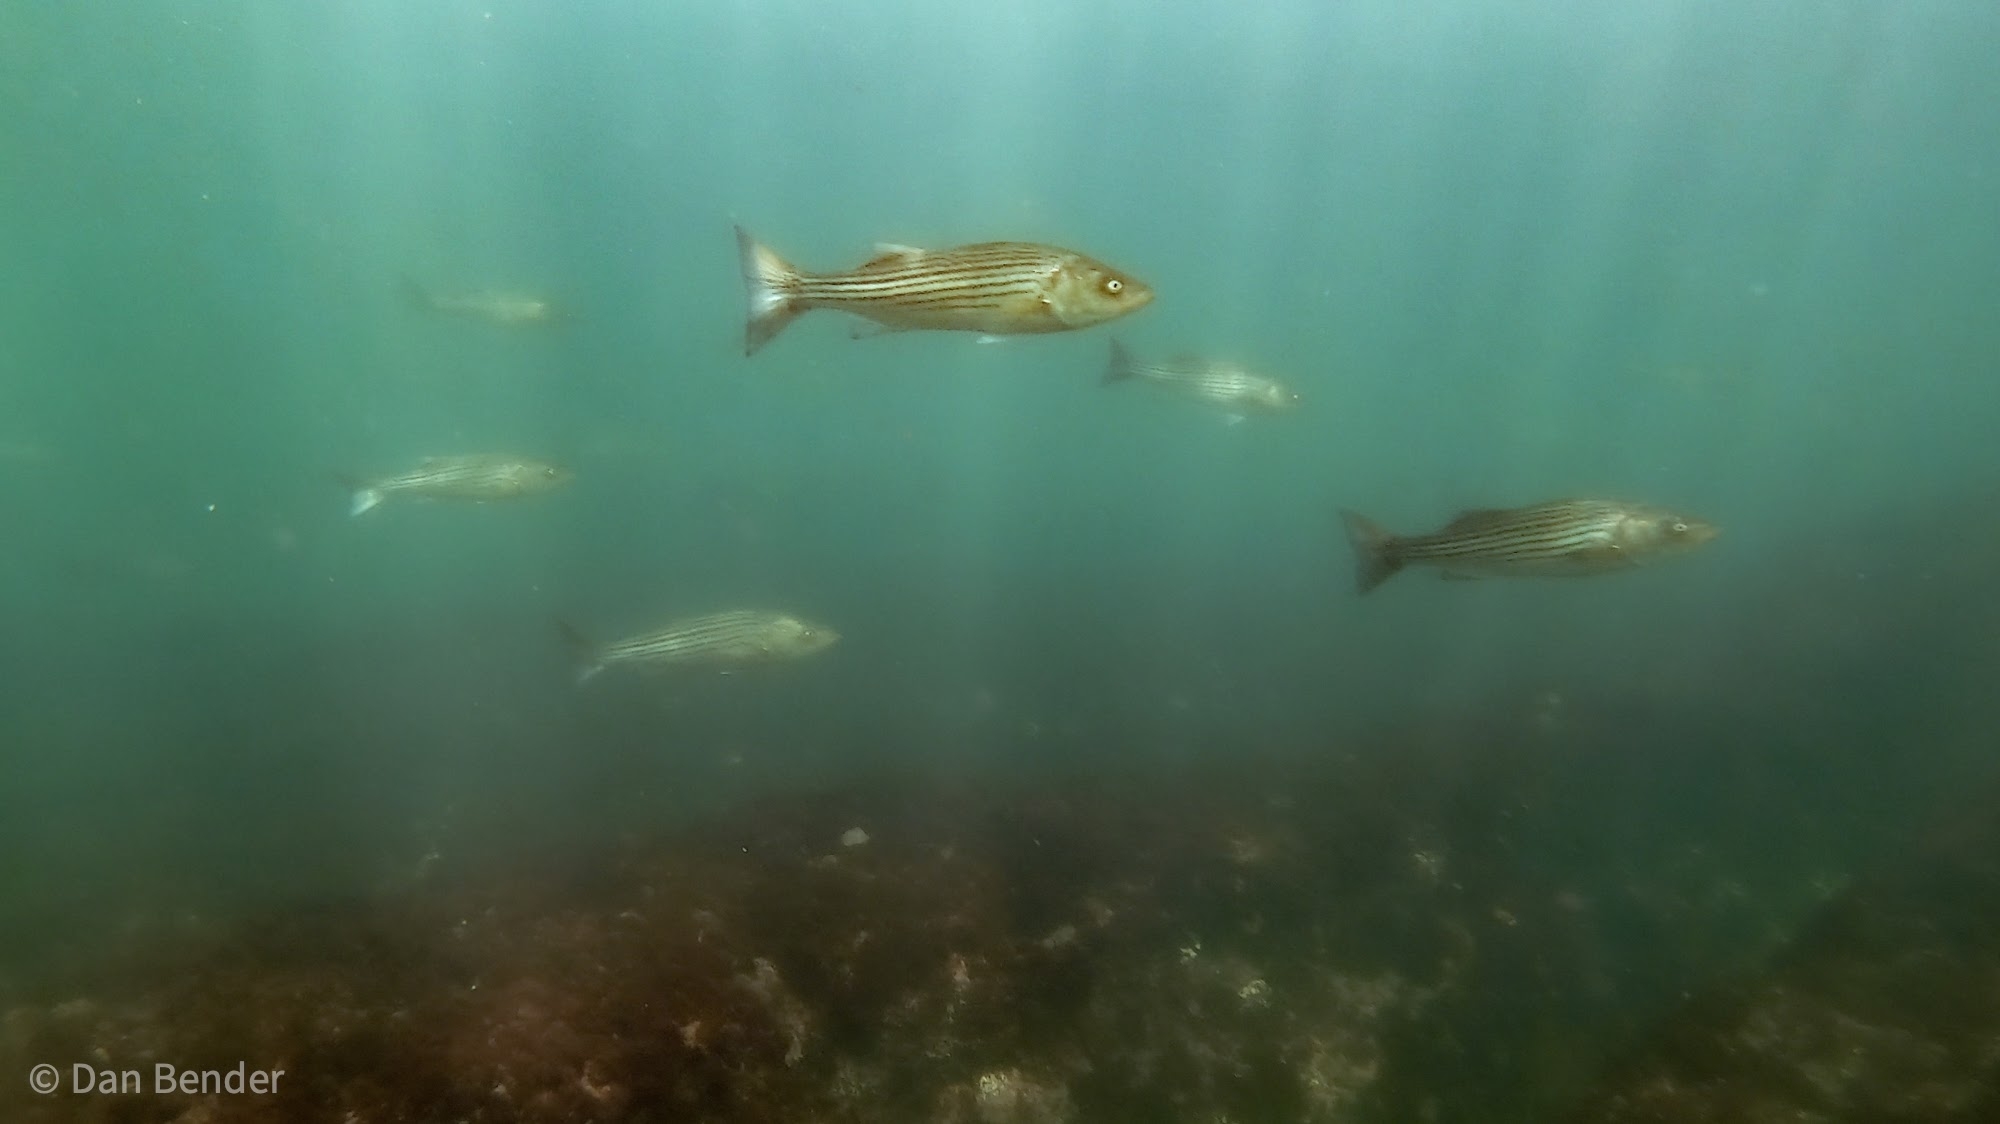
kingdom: Animalia
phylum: Chordata
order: Perciformes
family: Moronidae
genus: Morone
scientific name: Morone saxatilis
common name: Striped bass
